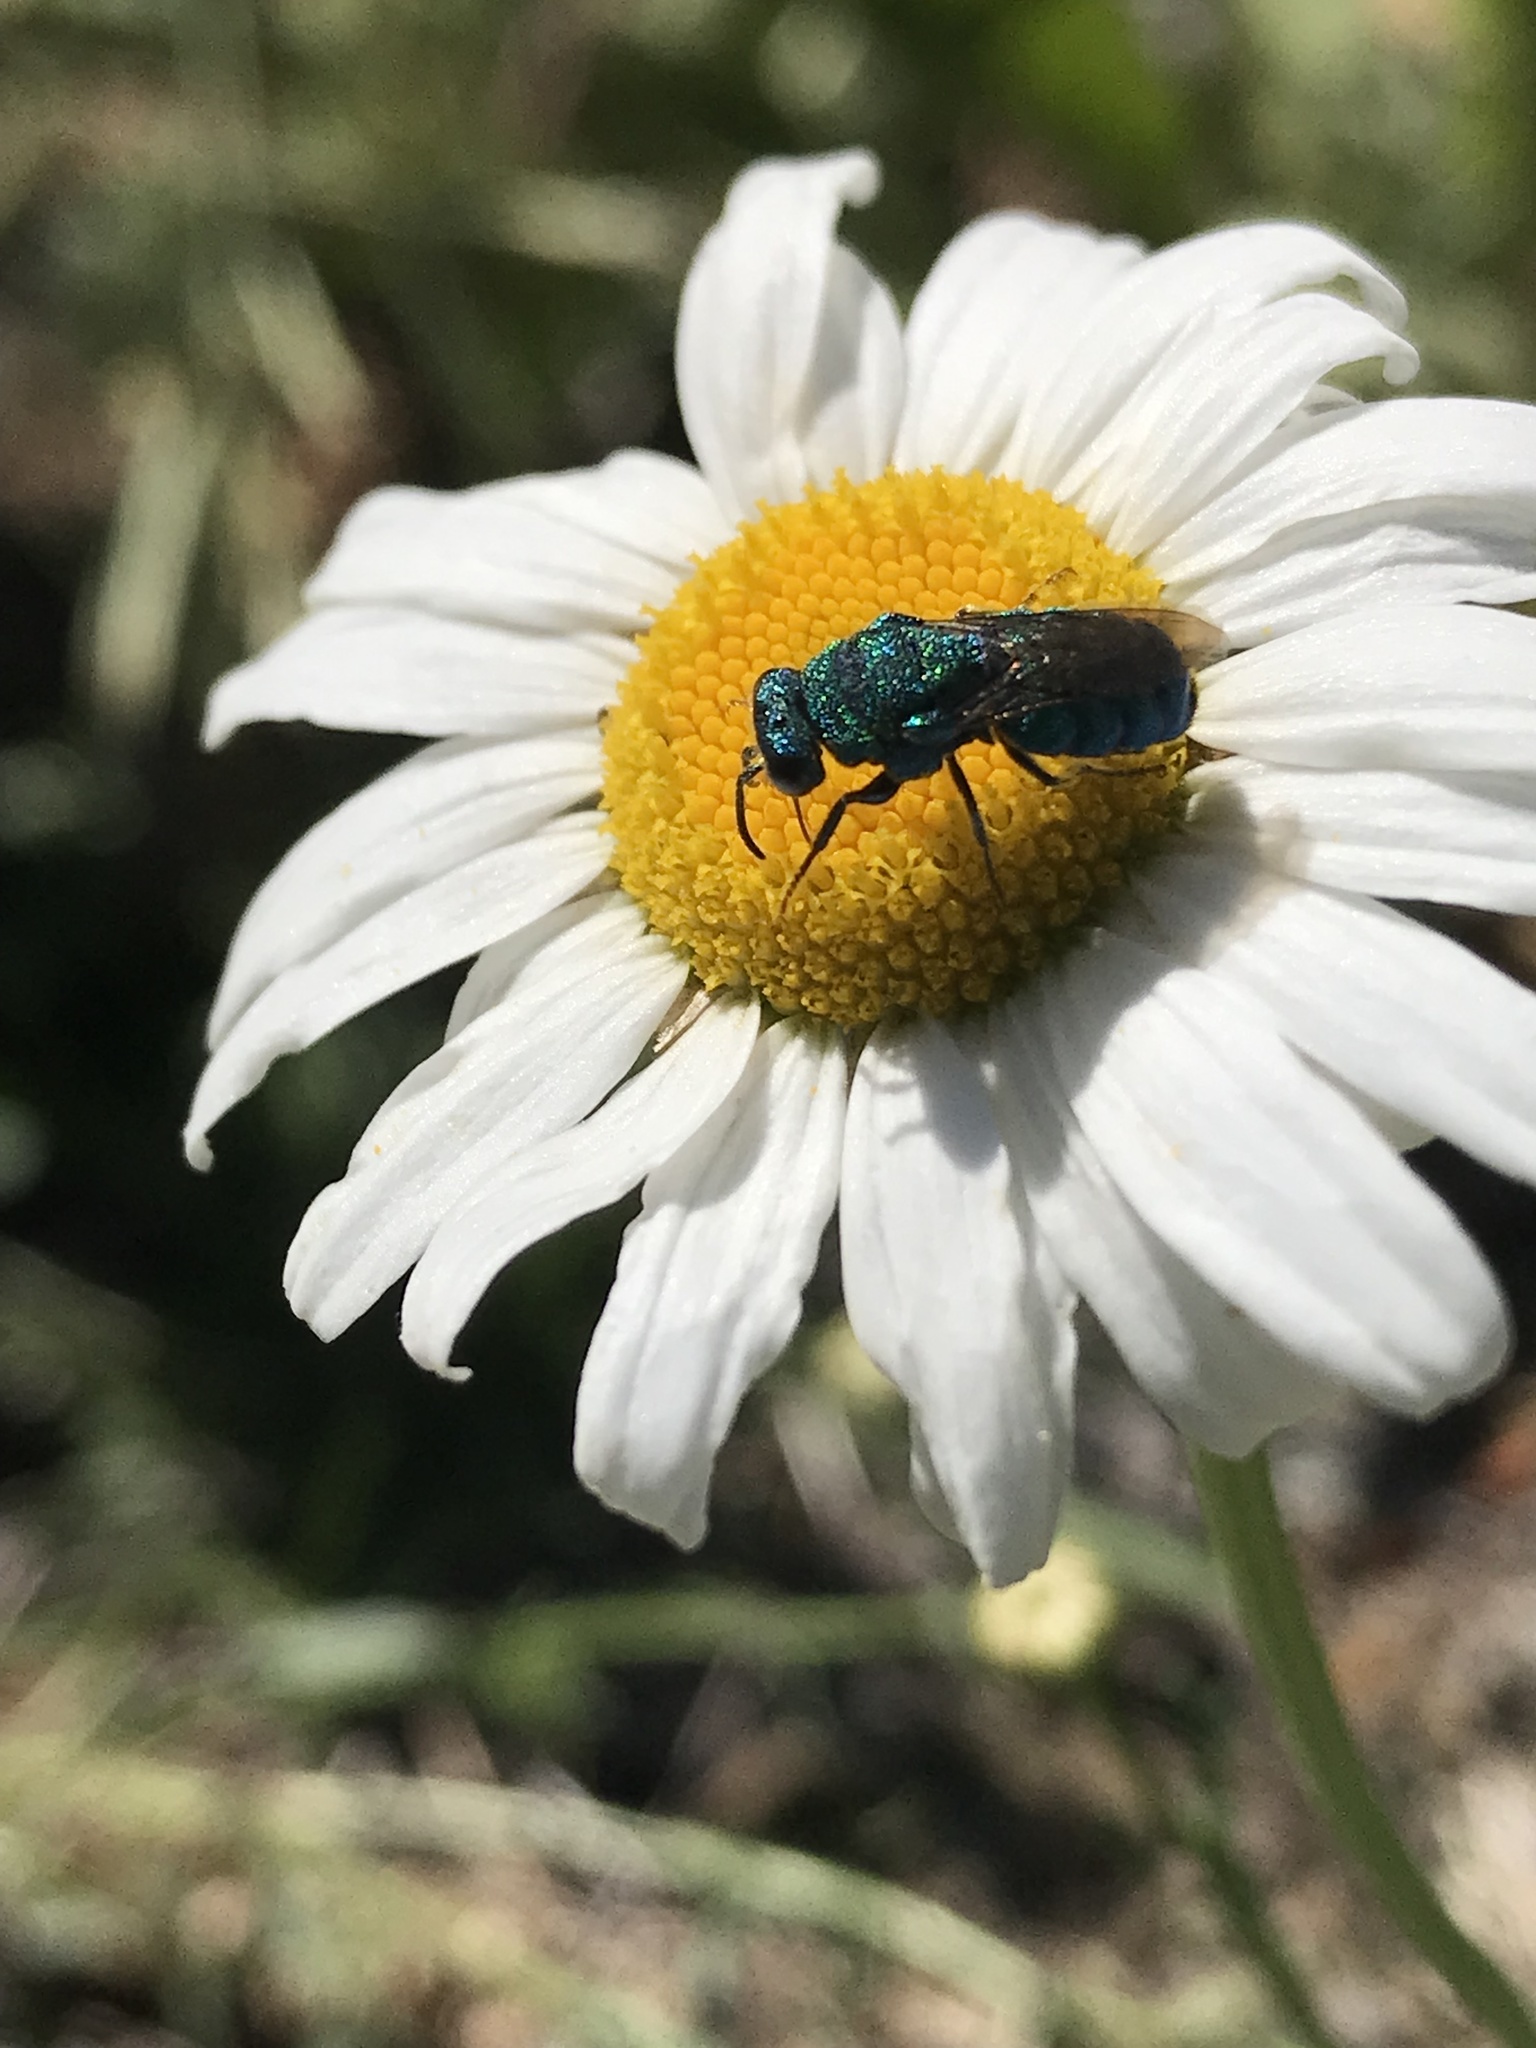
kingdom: Animalia
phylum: Arthropoda
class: Insecta
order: Hymenoptera
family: Chrysididae
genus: Parnopes
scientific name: Parnopes
